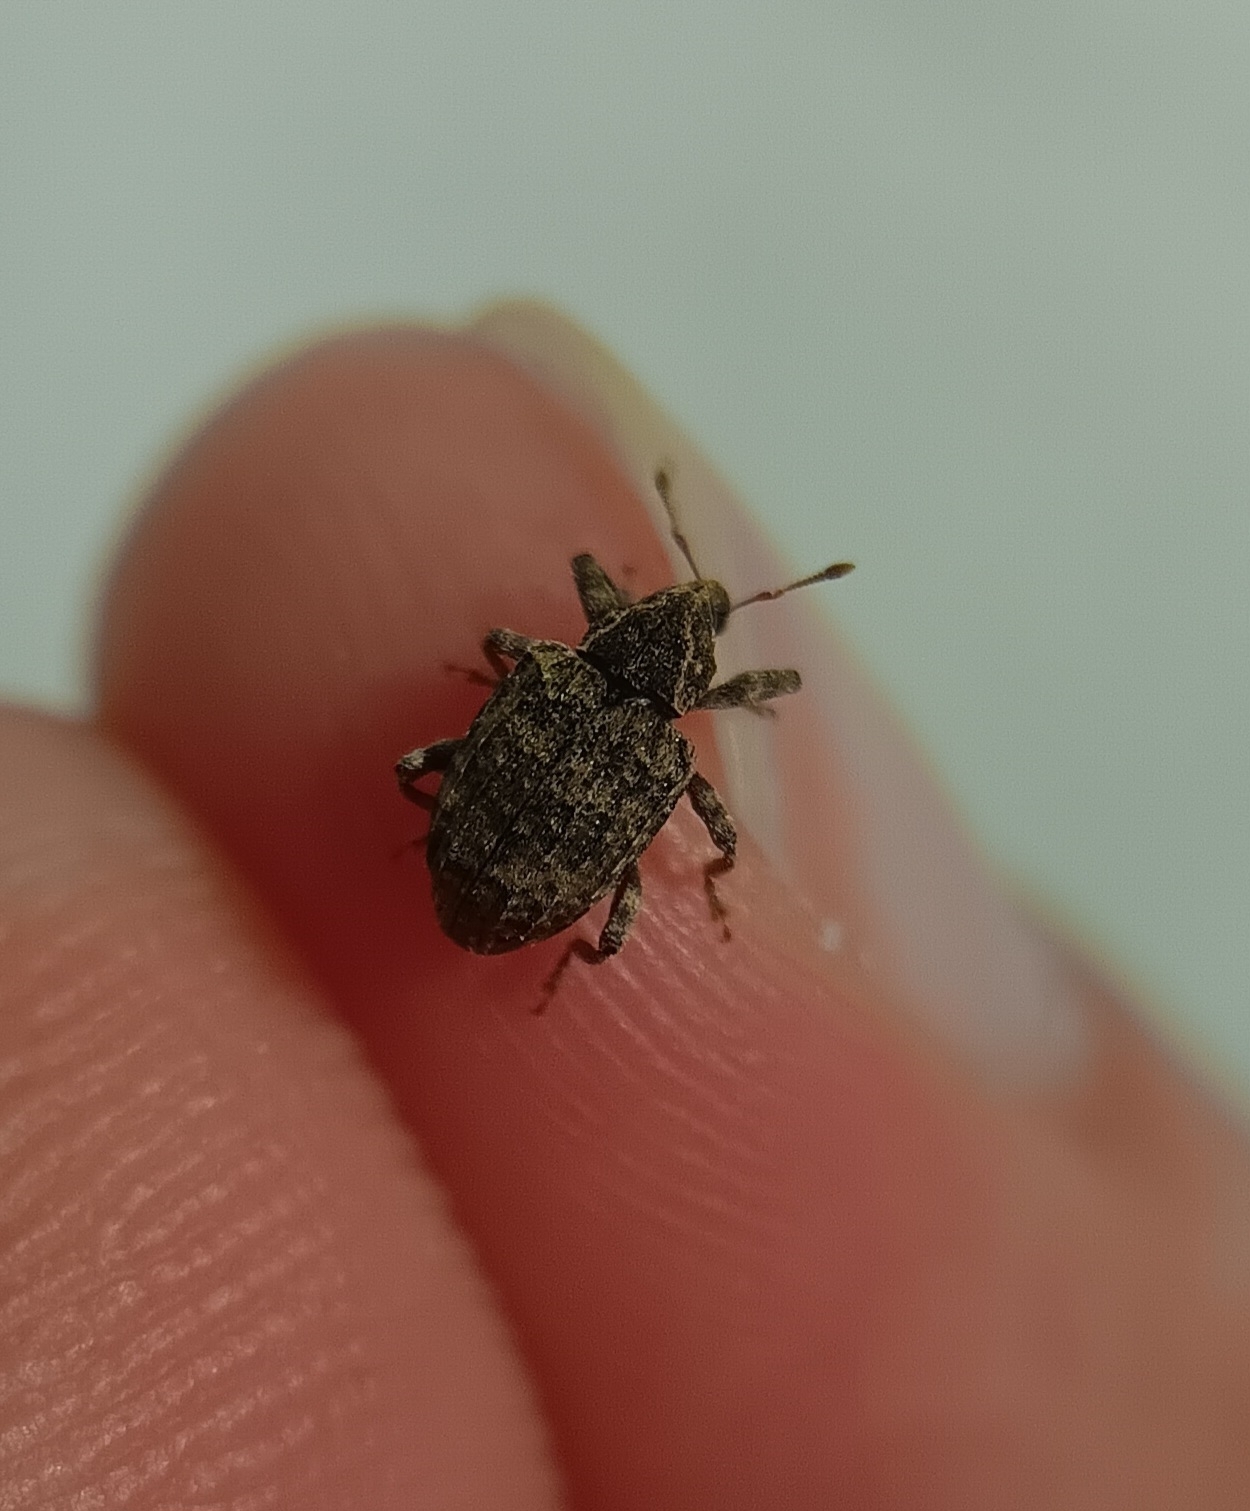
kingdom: Animalia
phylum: Arthropoda
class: Insecta
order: Coleoptera
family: Curculionidae
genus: Conotrachelus
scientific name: Conotrachelus seniculus
